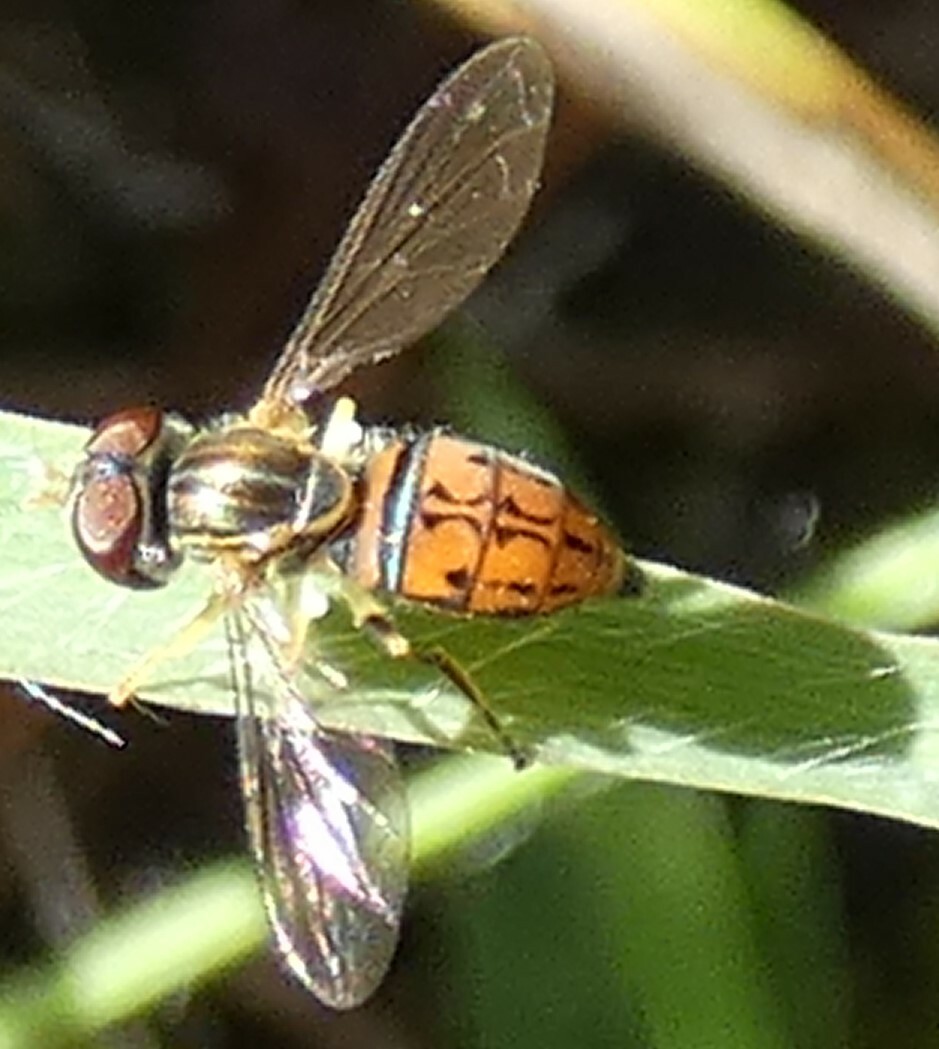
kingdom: Animalia
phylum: Arthropoda
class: Insecta
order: Diptera
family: Syrphidae
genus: Toxomerus
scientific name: Toxomerus boscii
